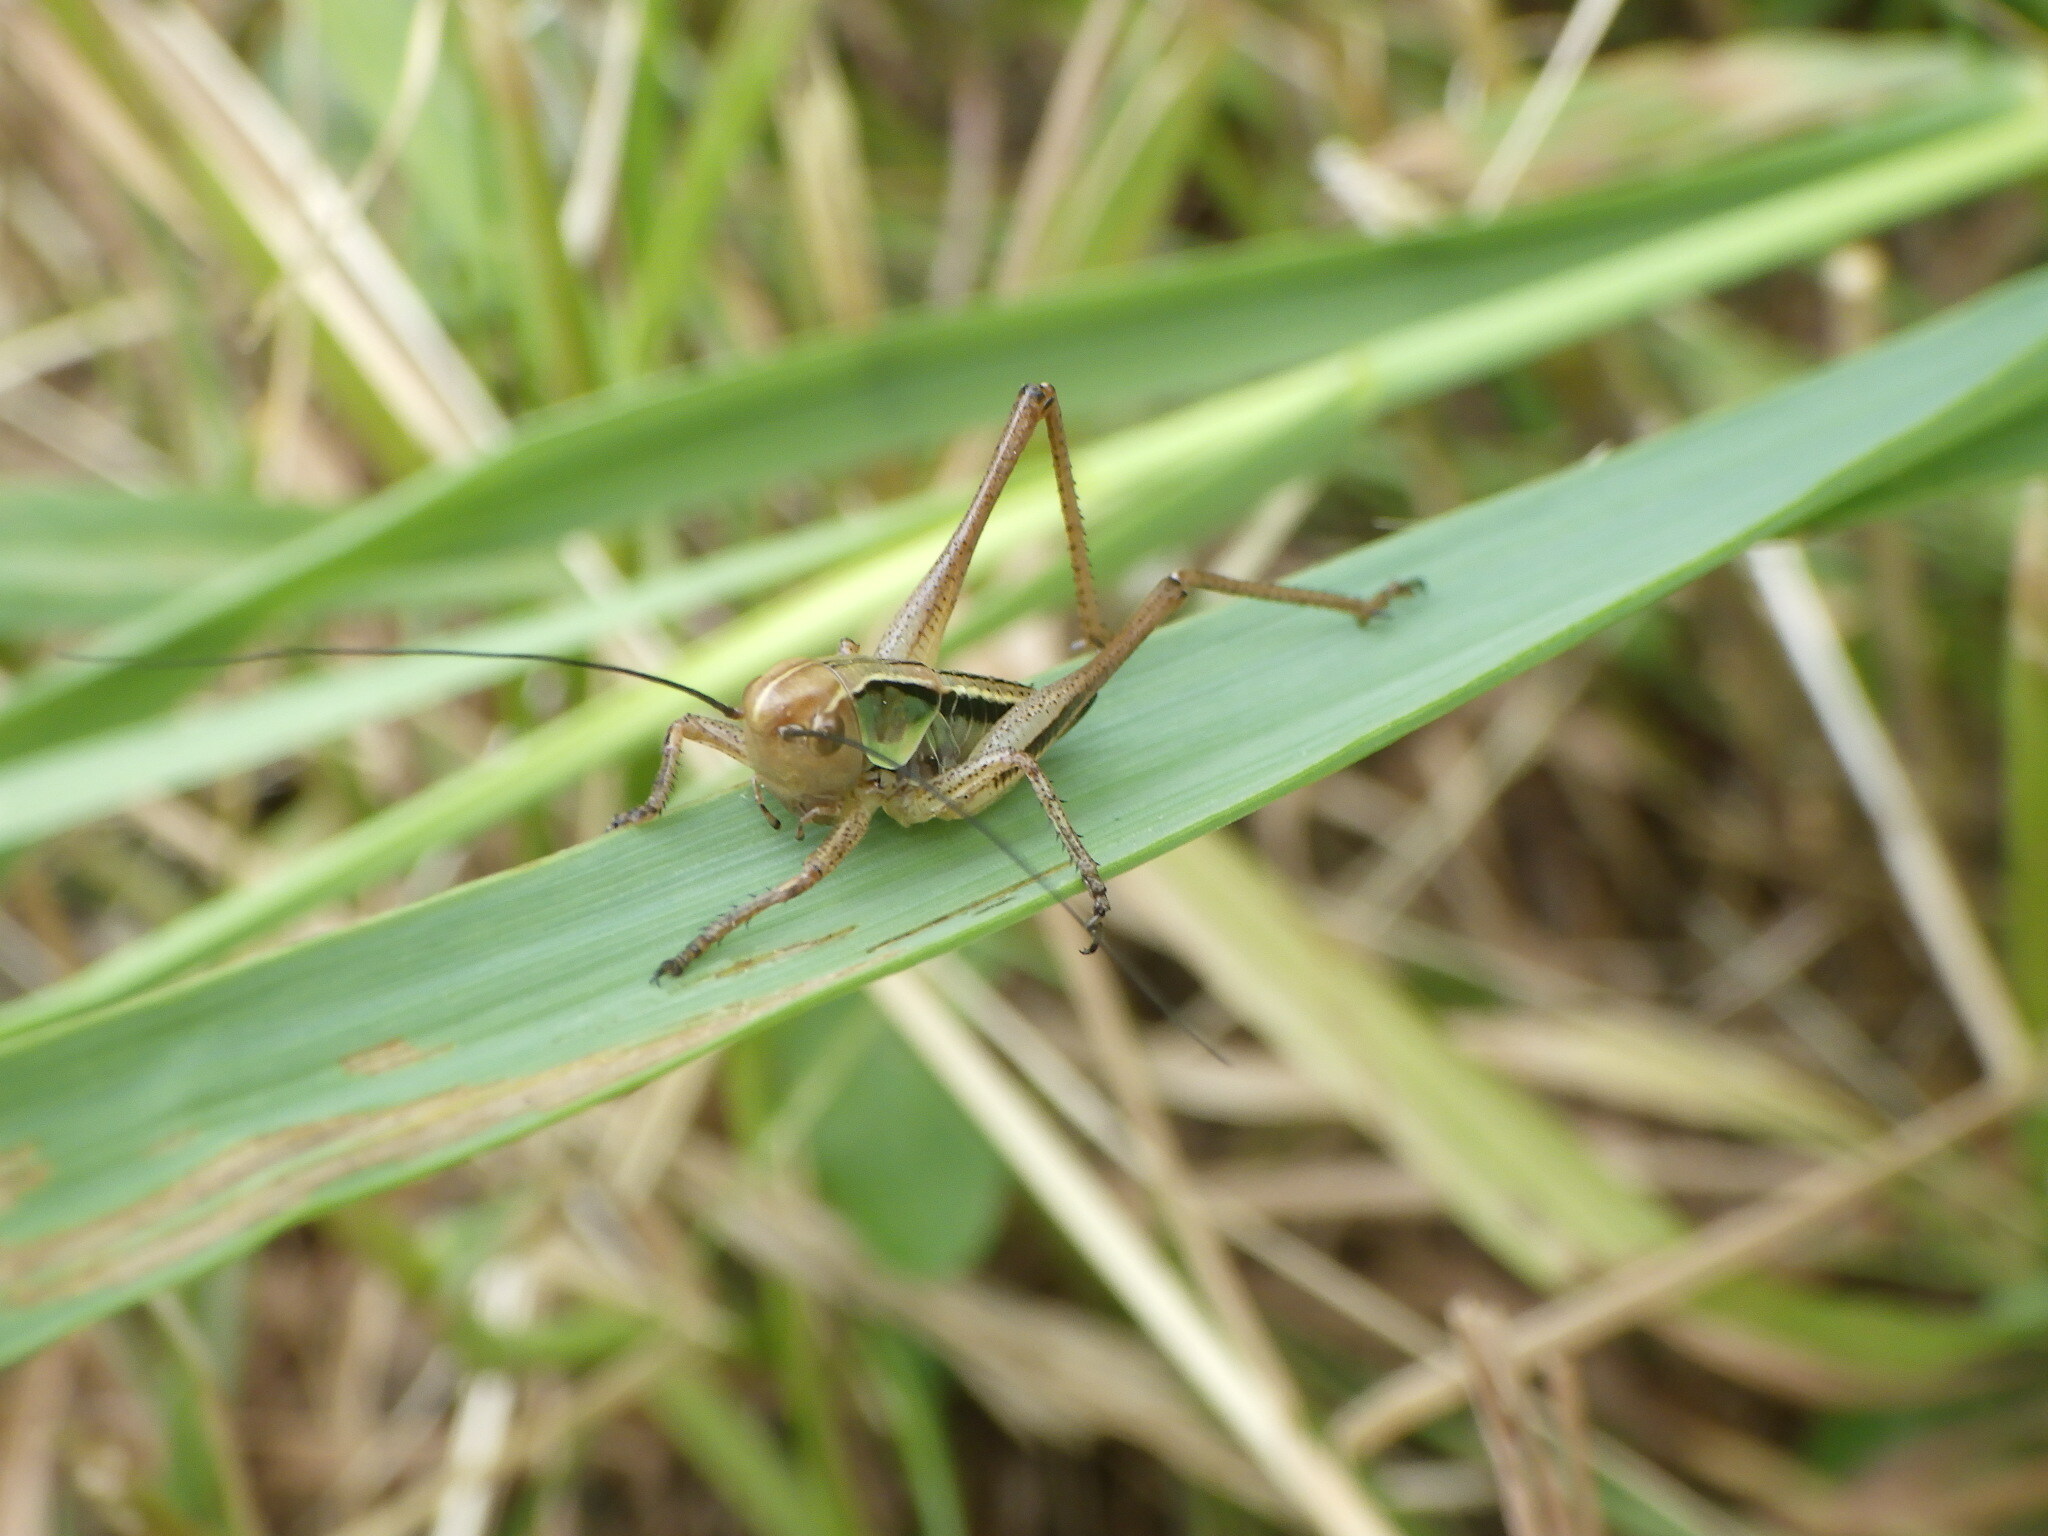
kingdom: Animalia
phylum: Arthropoda
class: Insecta
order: Orthoptera
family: Tettigoniidae
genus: Roeseliana
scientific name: Roeseliana roeselii
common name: Roesel's bush cricket
